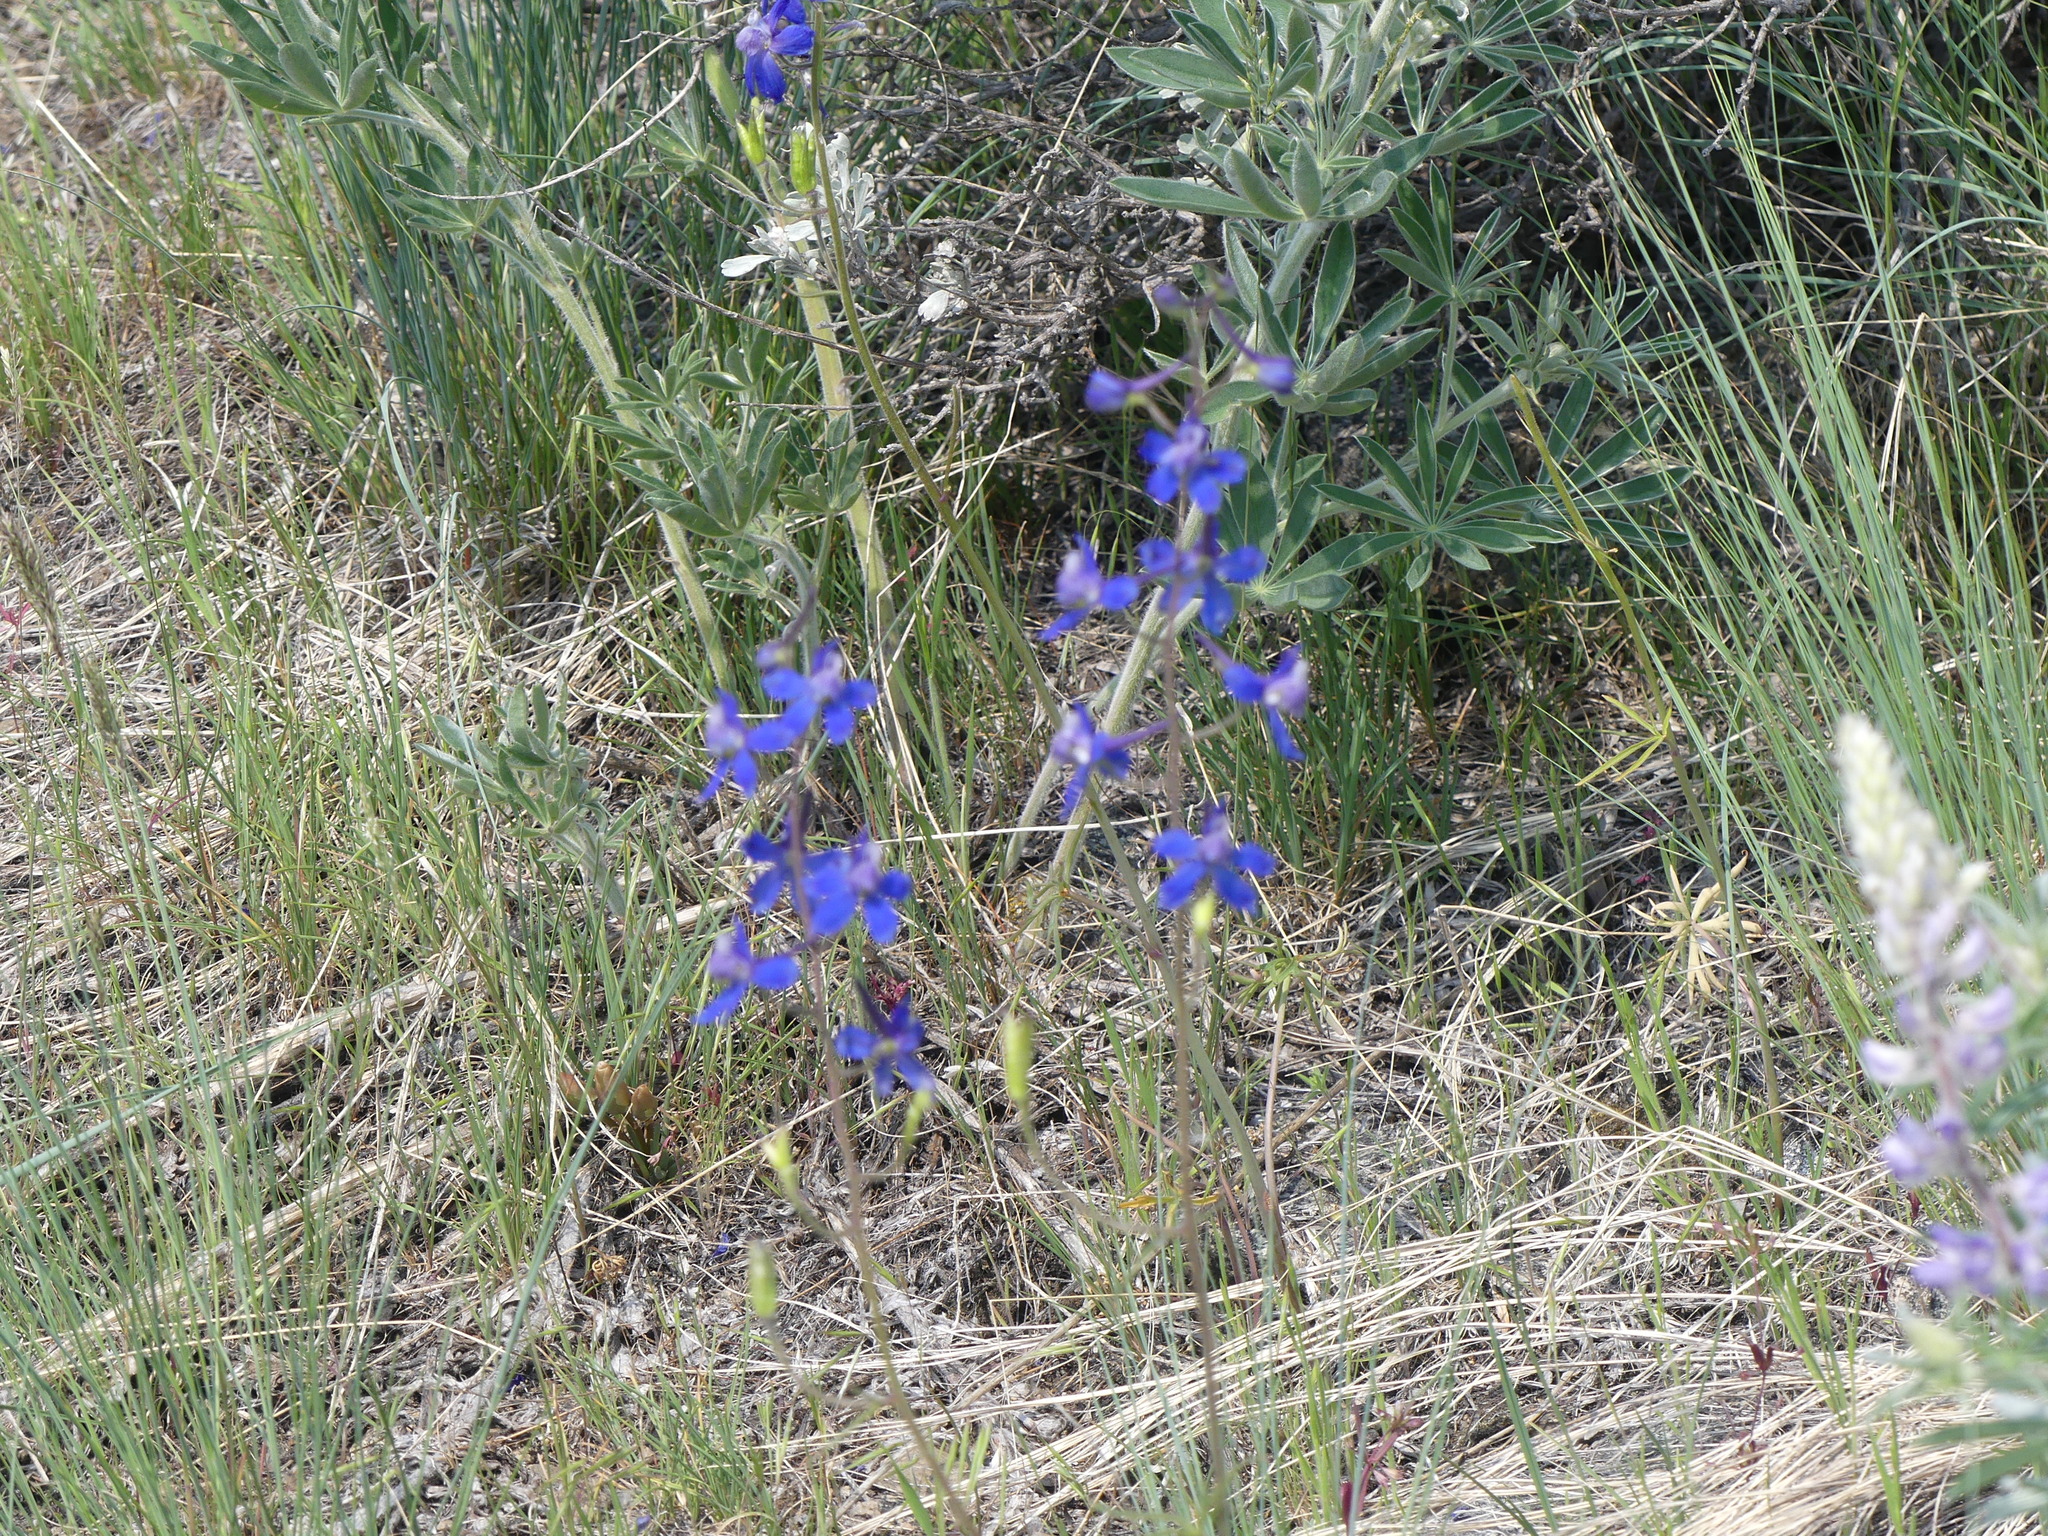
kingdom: Plantae
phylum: Tracheophyta
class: Magnoliopsida
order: Ranunculales
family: Ranunculaceae
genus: Delphinium
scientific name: Delphinium nuttallianum
